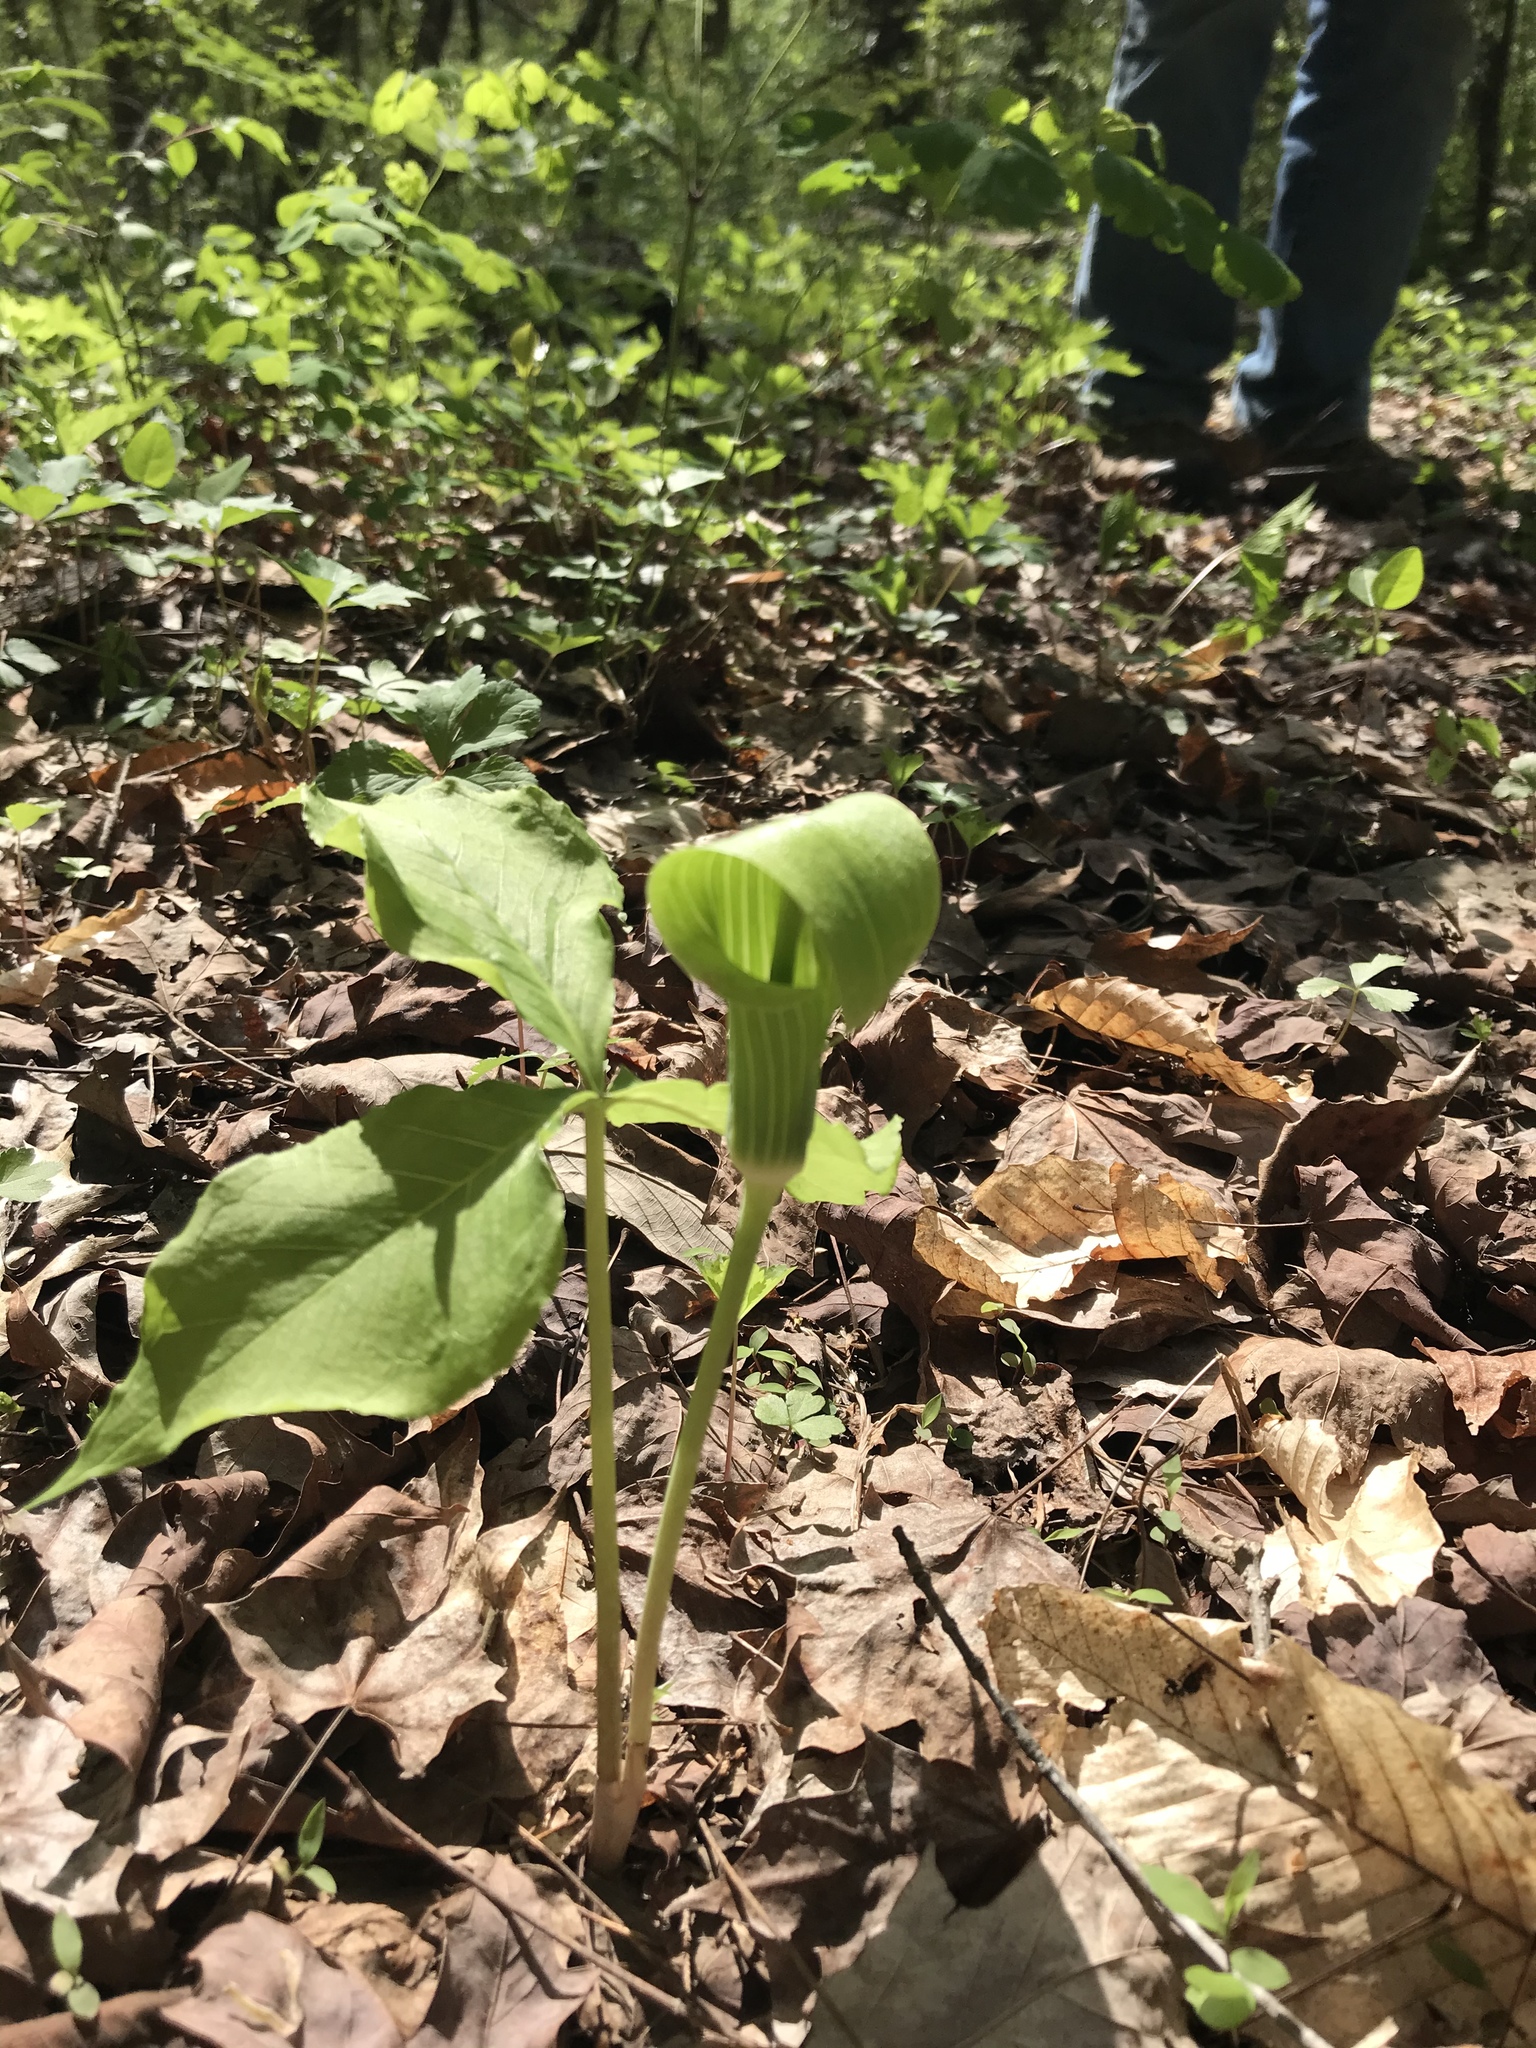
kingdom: Plantae
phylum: Tracheophyta
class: Liliopsida
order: Alismatales
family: Araceae
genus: Arisaema
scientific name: Arisaema triphyllum
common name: Jack-in-the-pulpit
